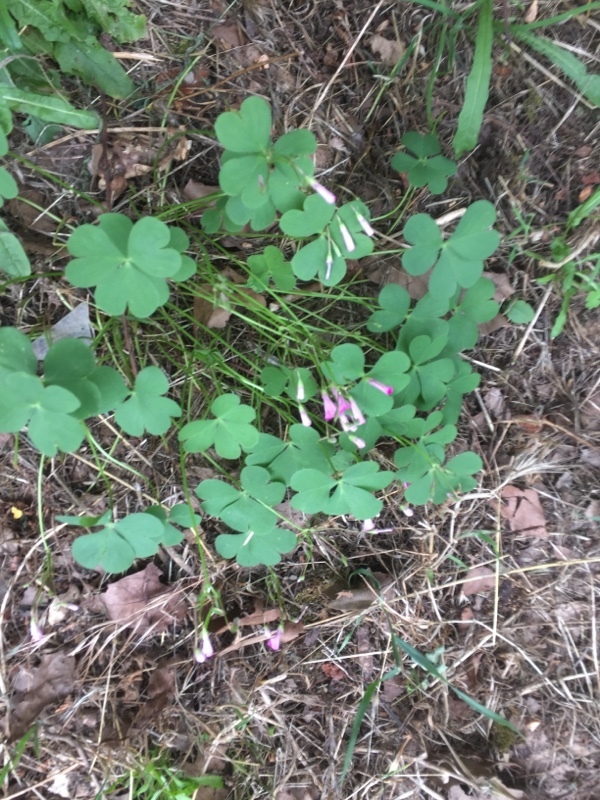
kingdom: Plantae
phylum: Tracheophyta
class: Magnoliopsida
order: Oxalidales
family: Oxalidaceae
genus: Oxalis
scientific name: Oxalis articulata
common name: Pink-sorrel
